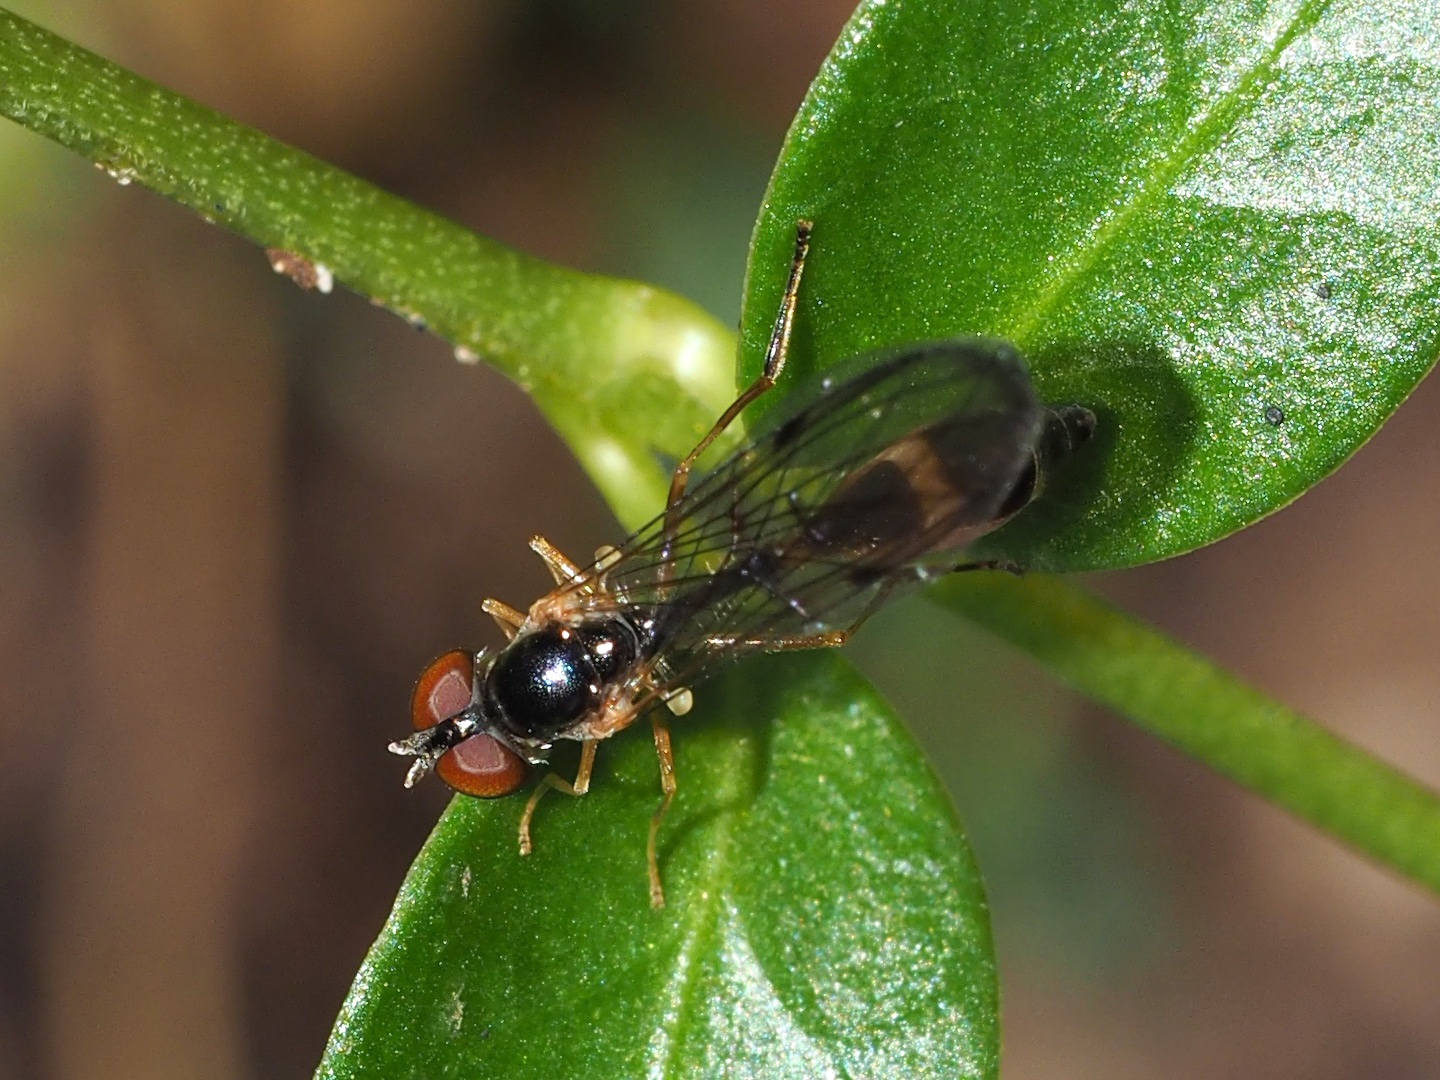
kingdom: Animalia
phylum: Arthropoda
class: Insecta
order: Diptera
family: Syrphidae
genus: Baccha
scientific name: Baccha elongata
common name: Common dainty
